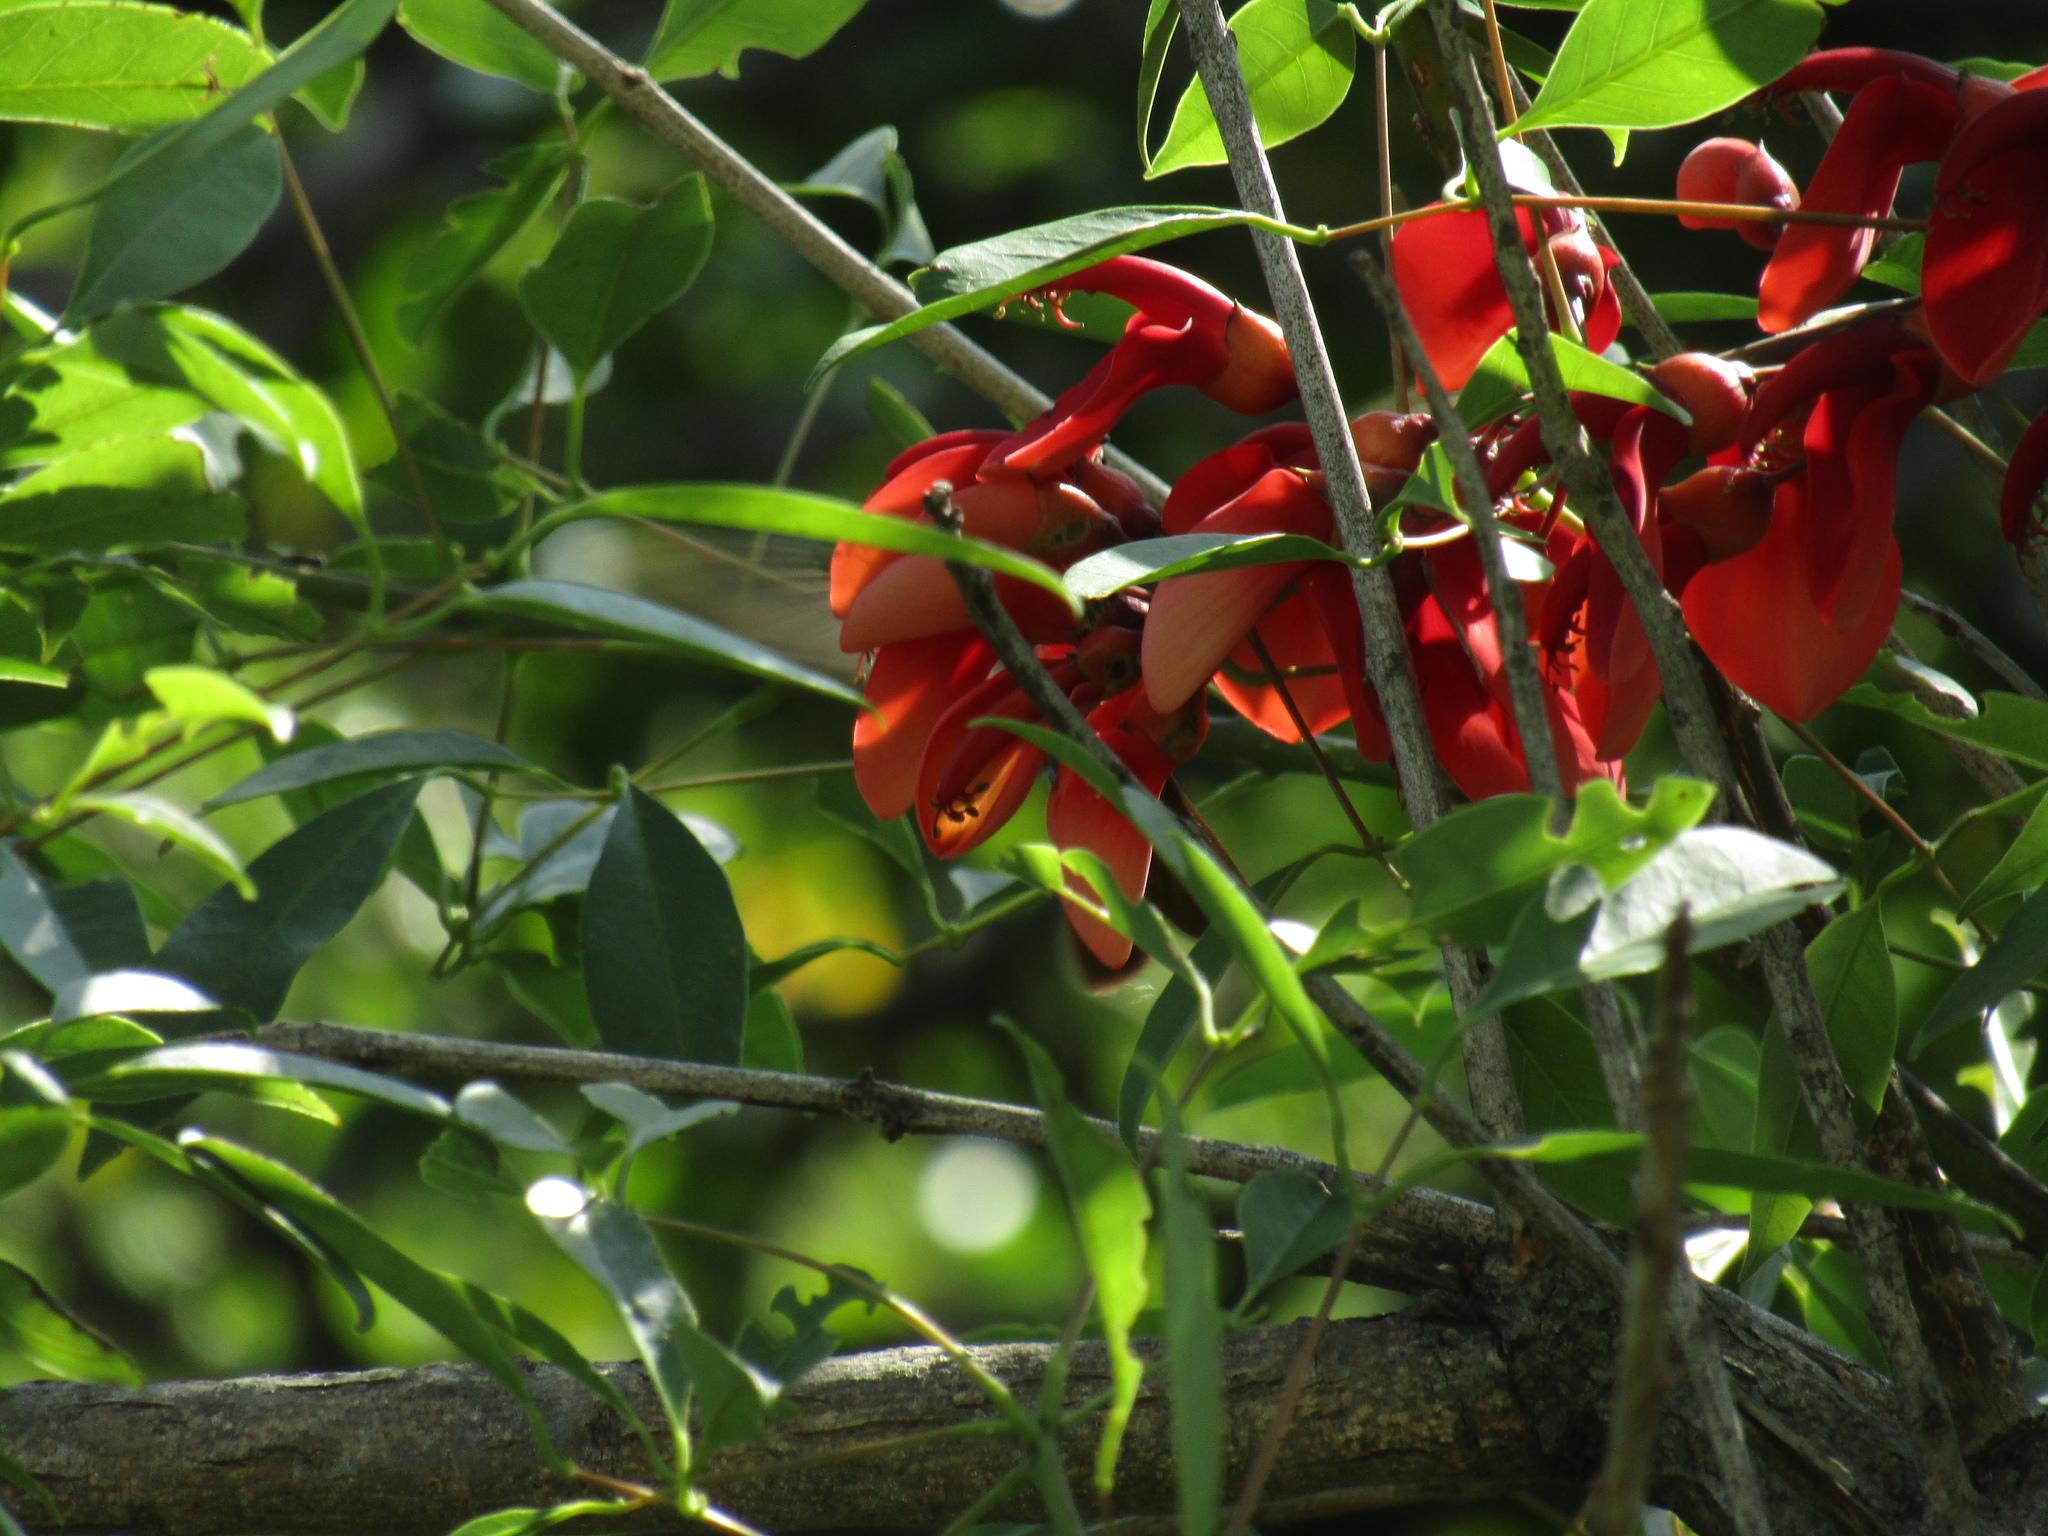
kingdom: Plantae
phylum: Tracheophyta
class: Magnoliopsida
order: Fabales
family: Fabaceae
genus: Erythrina
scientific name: Erythrina crista-galli
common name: Cockspur coral tree
